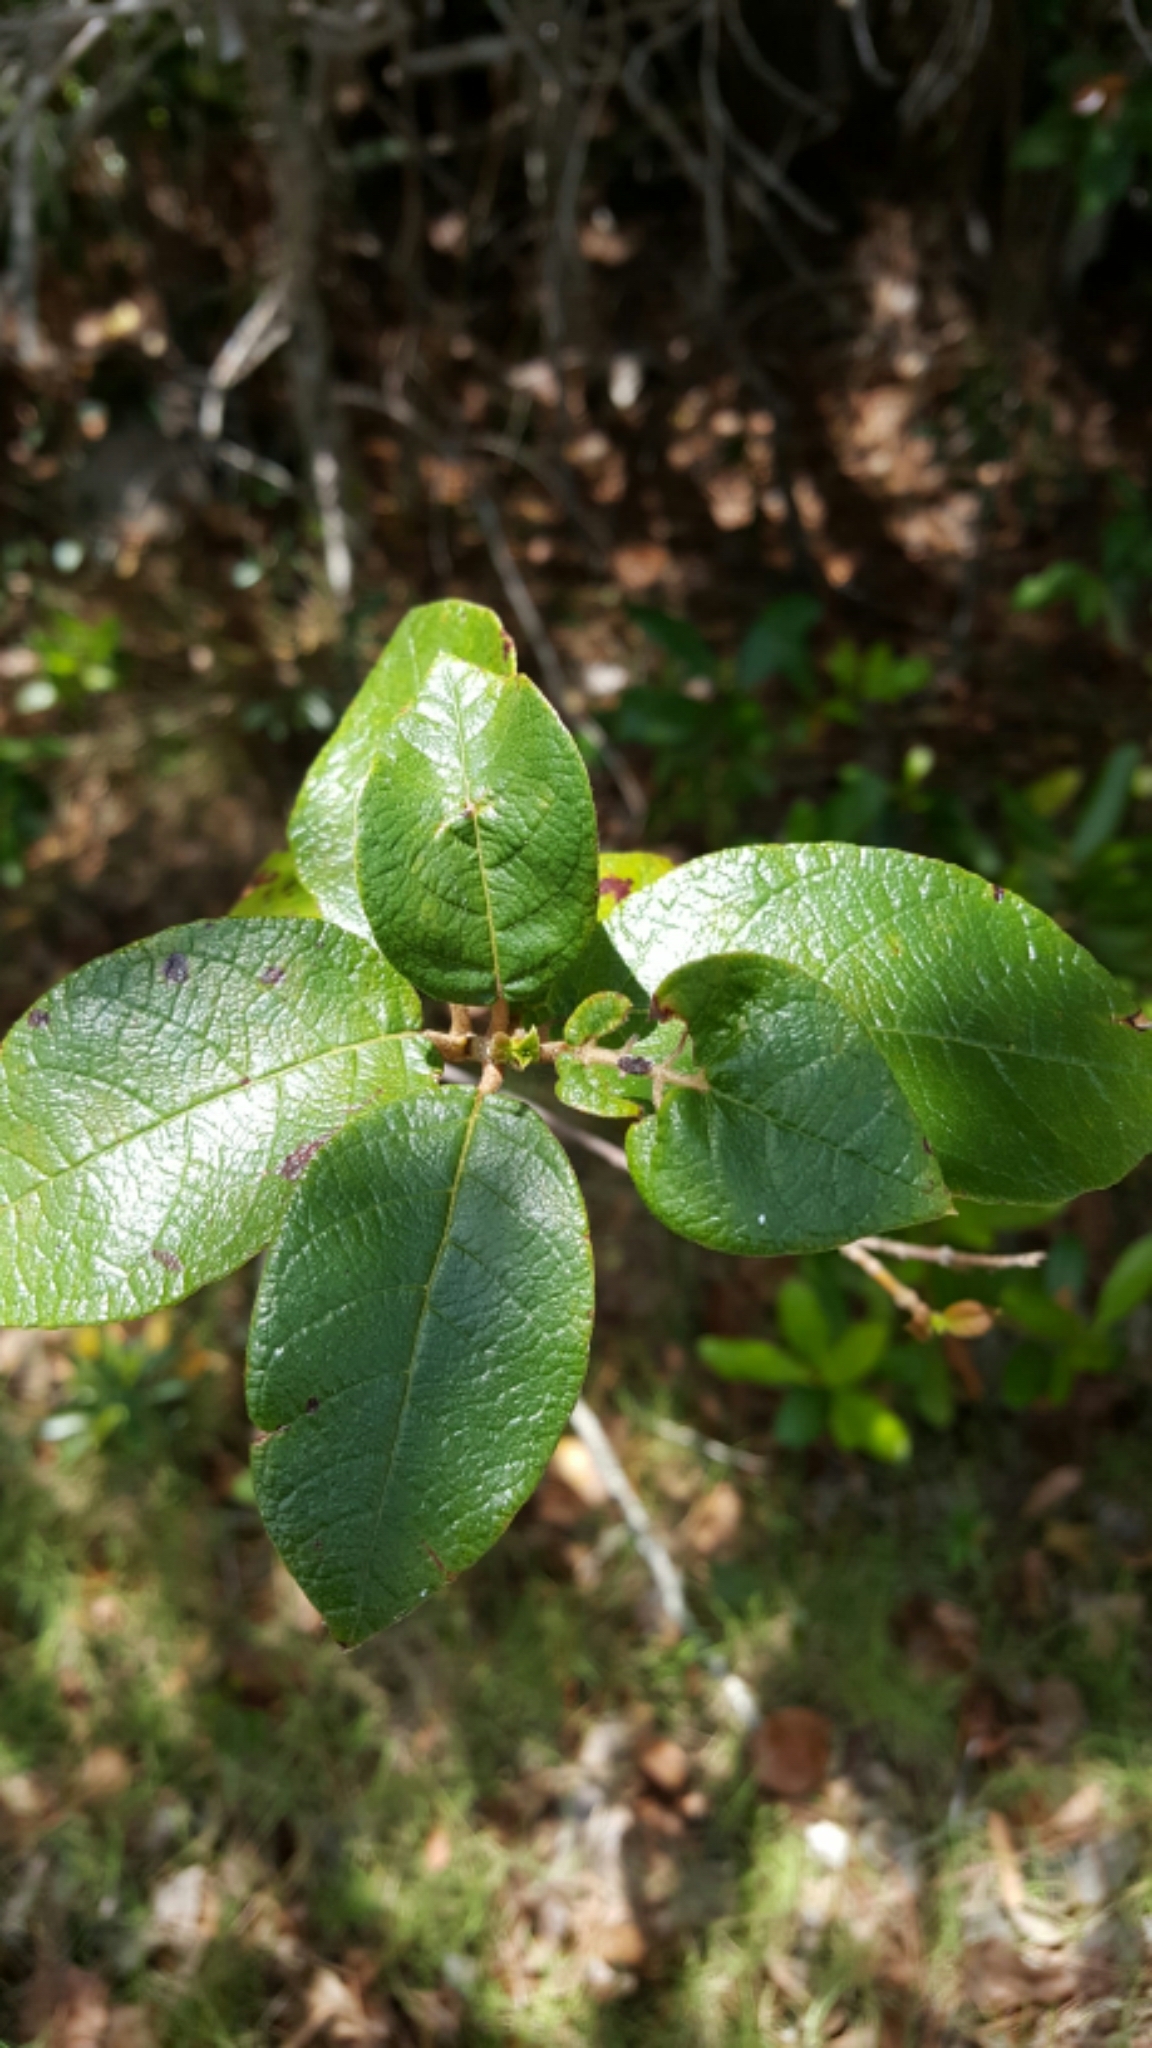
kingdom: Plantae
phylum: Tracheophyta
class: Magnoliopsida
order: Gentianales
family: Rubiaceae
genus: Guettarda
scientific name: Guettarda scabra
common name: Pigeon bay
